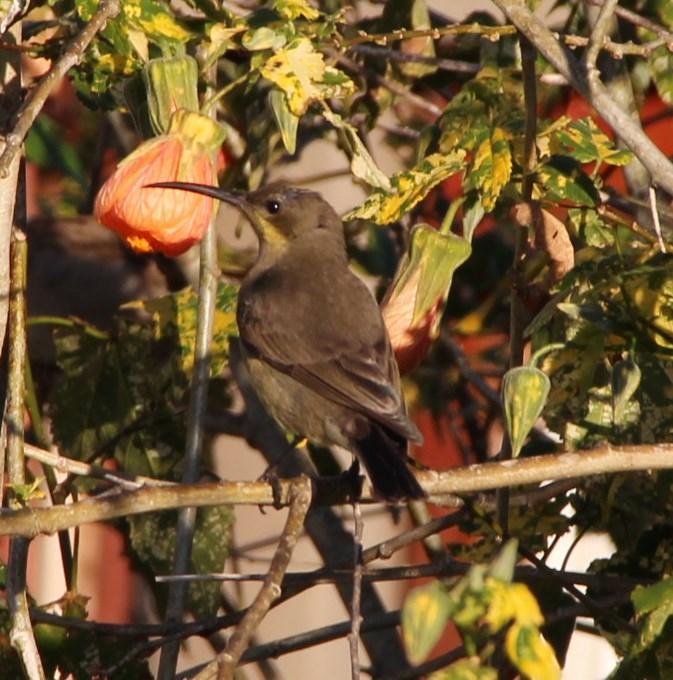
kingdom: Animalia
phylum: Chordata
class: Aves
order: Passeriformes
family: Nectariniidae
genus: Nectarinia
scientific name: Nectarinia famosa
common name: Malachite sunbird
